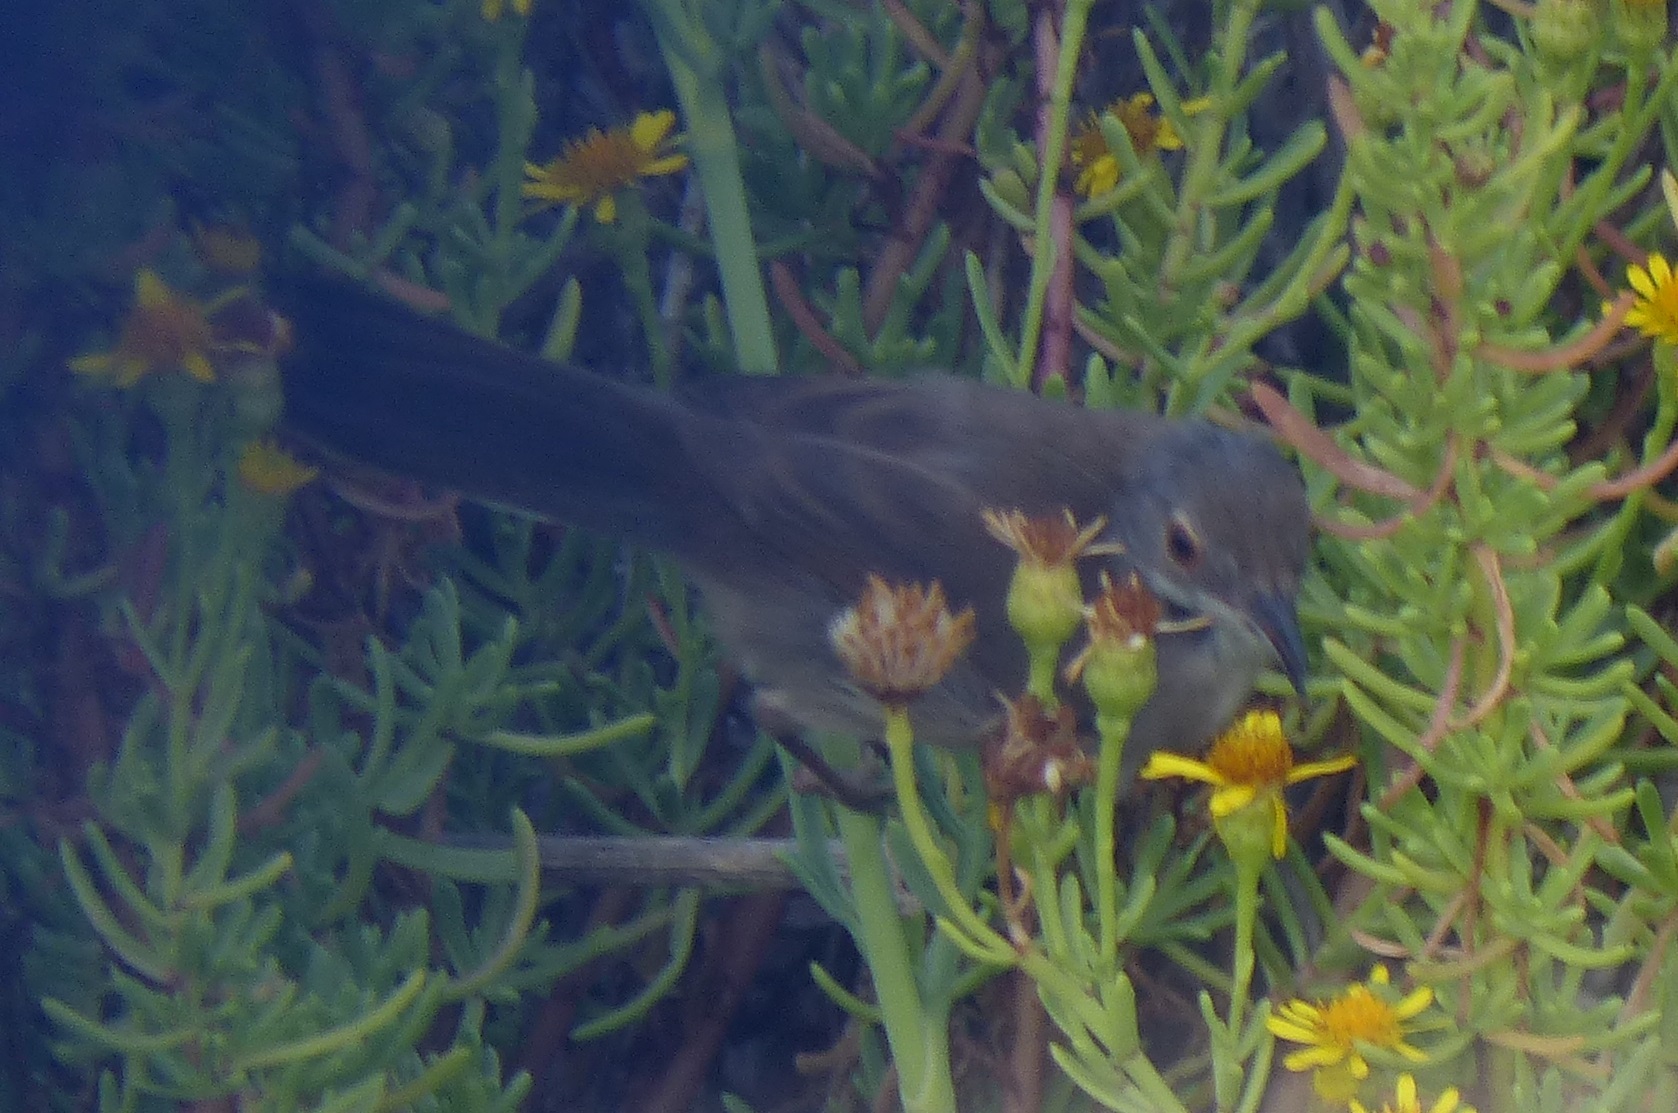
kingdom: Animalia
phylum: Chordata
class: Aves
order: Passeriformes
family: Sylviidae
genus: Curruca
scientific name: Curruca melanocephala
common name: Sardinian warbler
